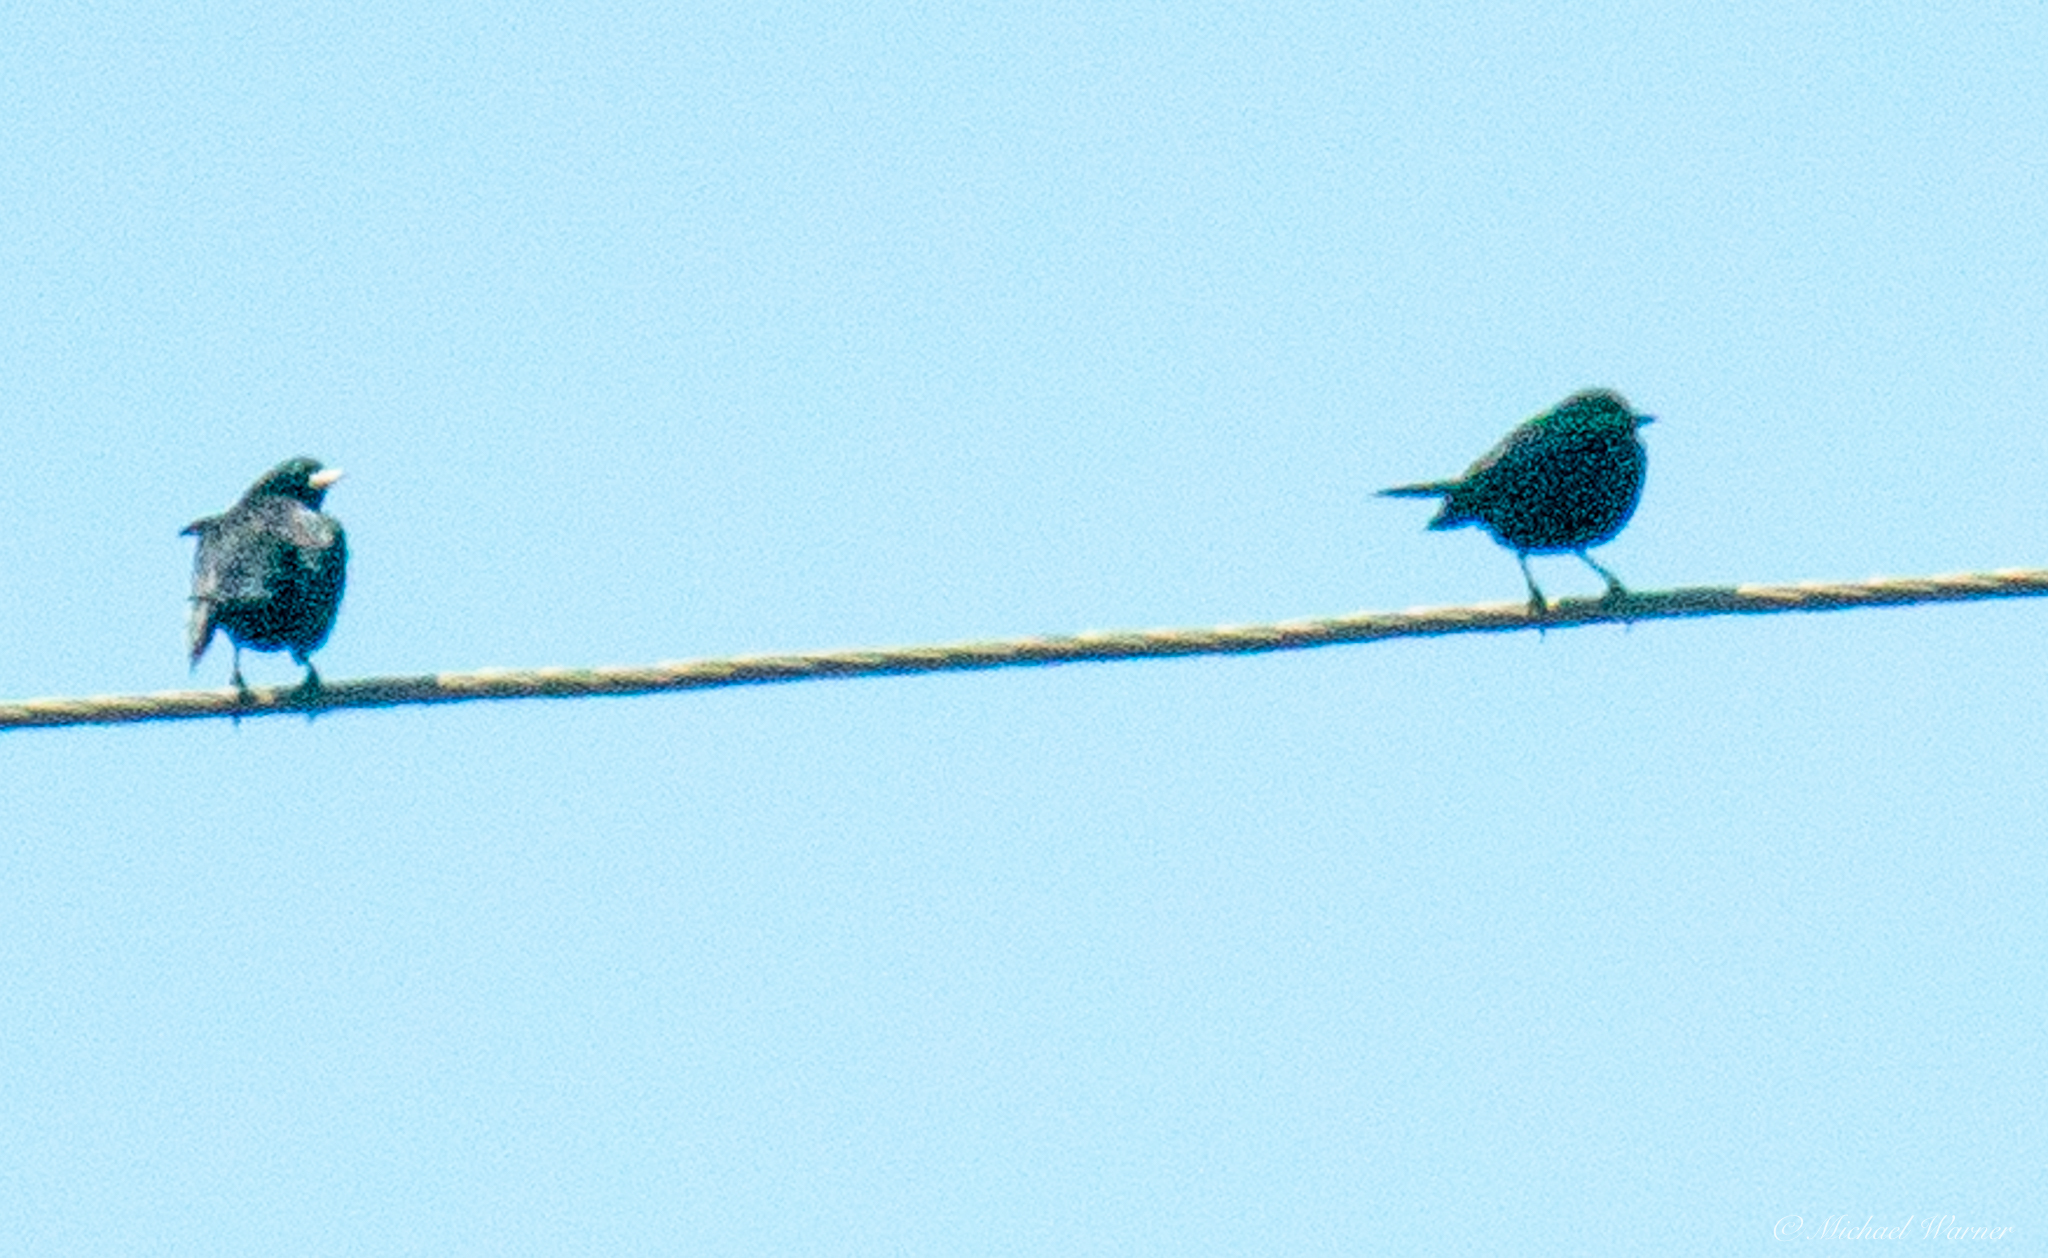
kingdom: Animalia
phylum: Chordata
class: Aves
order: Passeriformes
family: Sturnidae
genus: Sturnus
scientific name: Sturnus vulgaris
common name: Common starling
